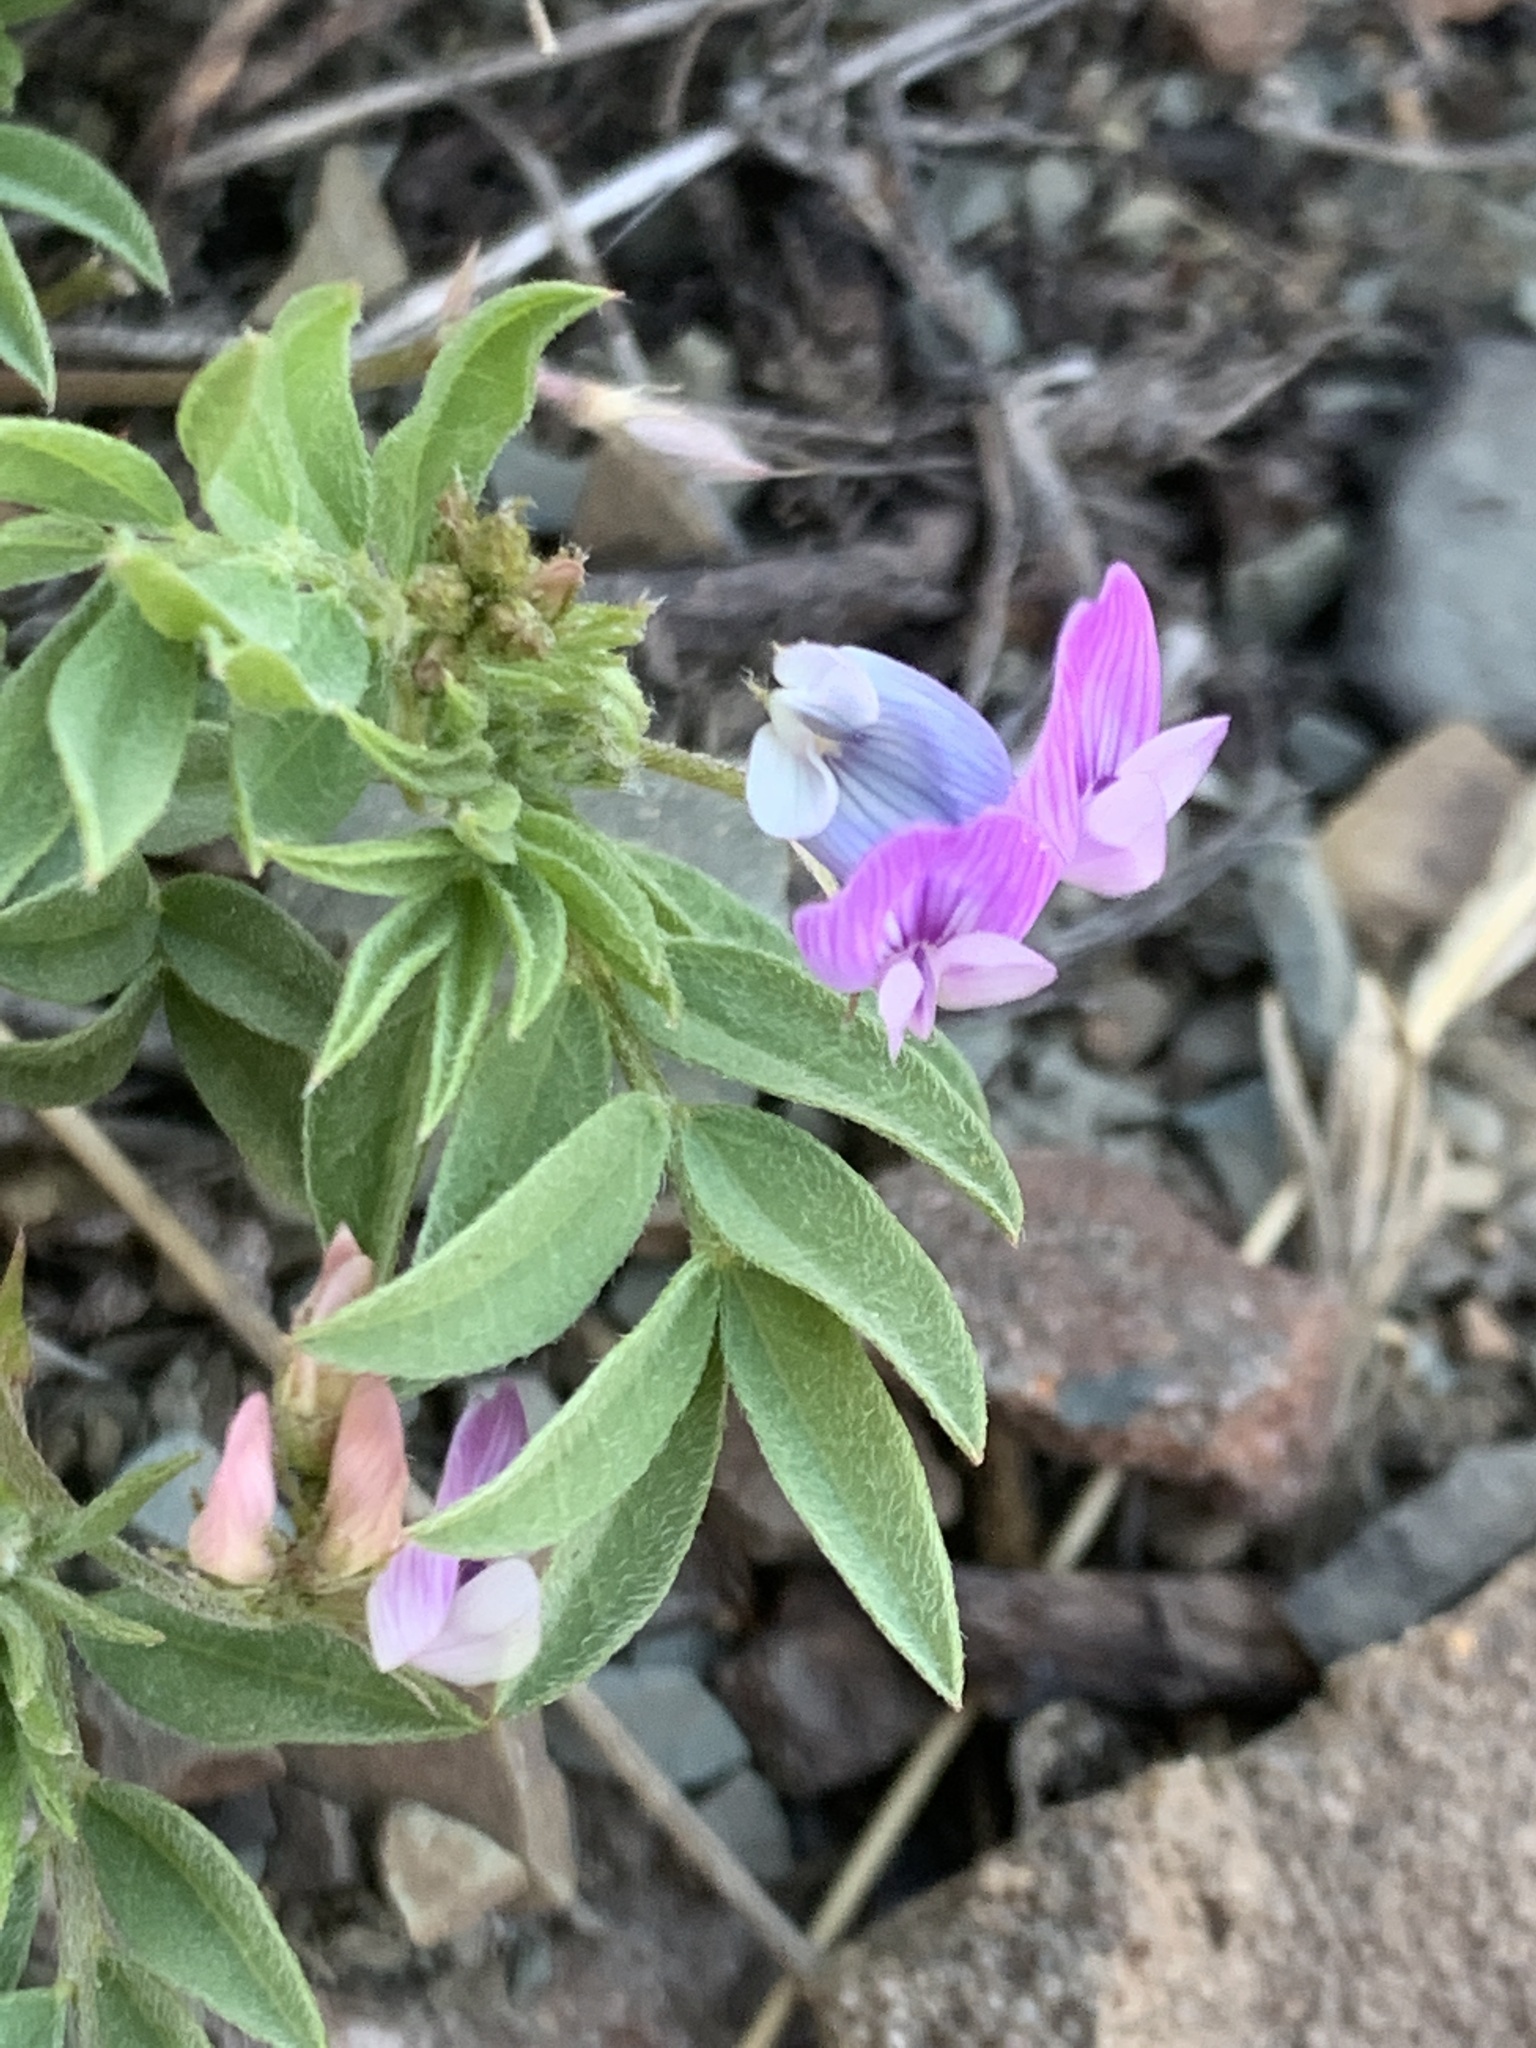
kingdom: Plantae
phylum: Tracheophyta
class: Magnoliopsida
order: Fabales
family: Fabaceae
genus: Astragalus
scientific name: Astragalus vexilliflexus
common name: Bent-flowered milk-vetch
